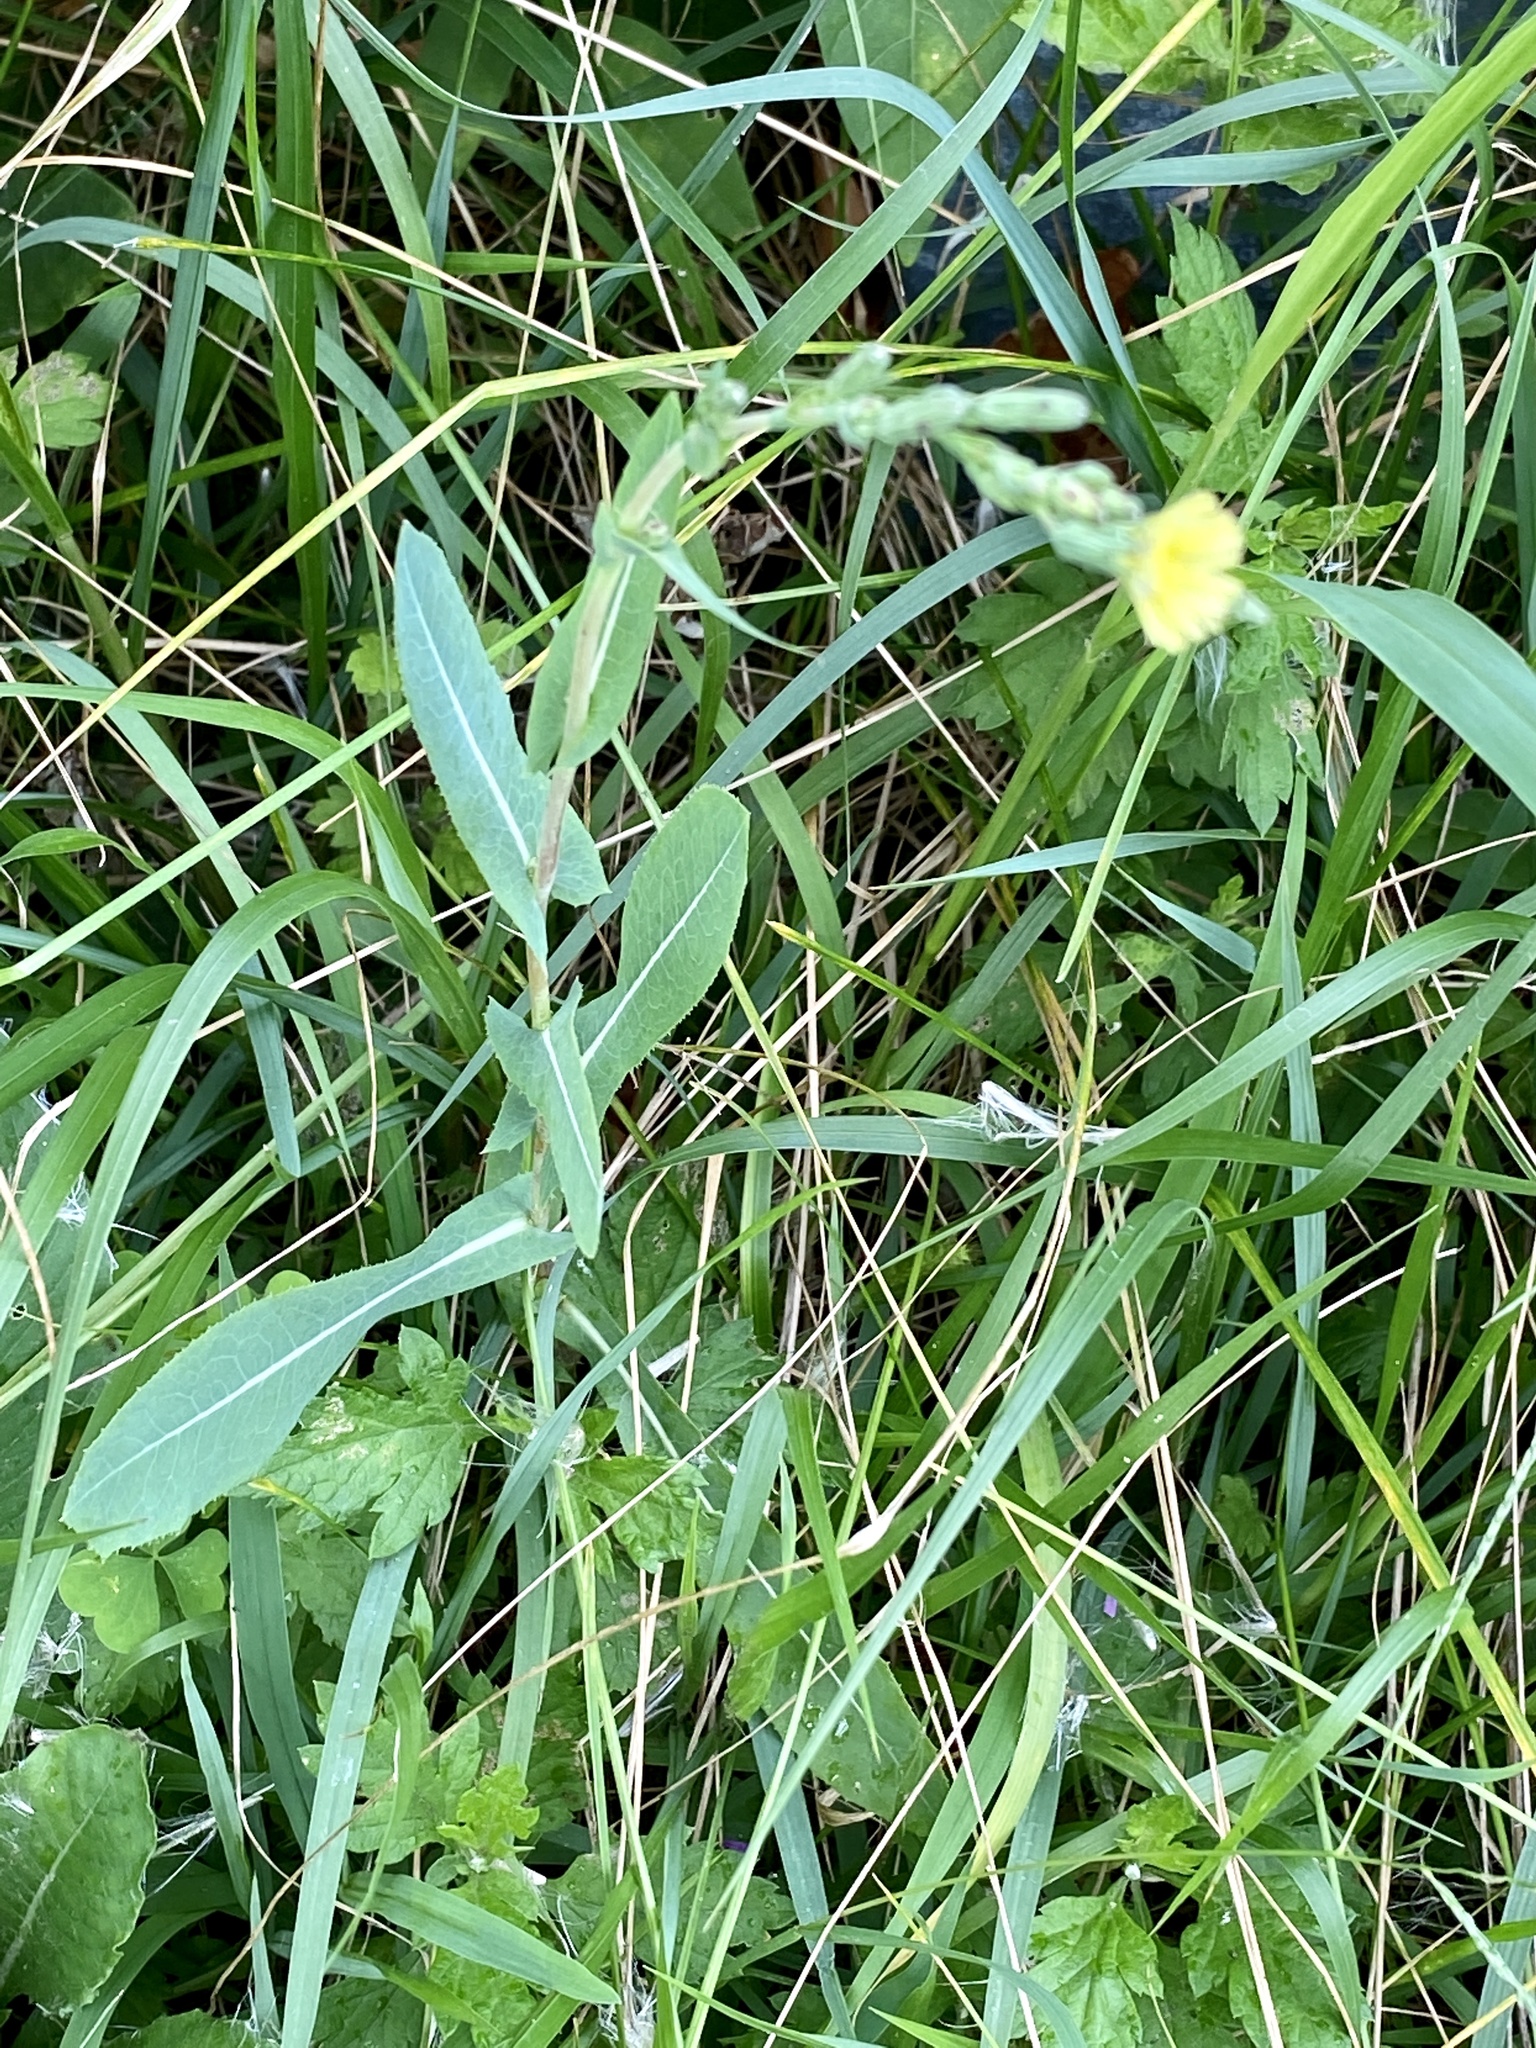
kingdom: Plantae
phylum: Tracheophyta
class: Magnoliopsida
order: Asterales
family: Asteraceae
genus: Lactuca
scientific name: Lactuca serriola
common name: Prickly lettuce
